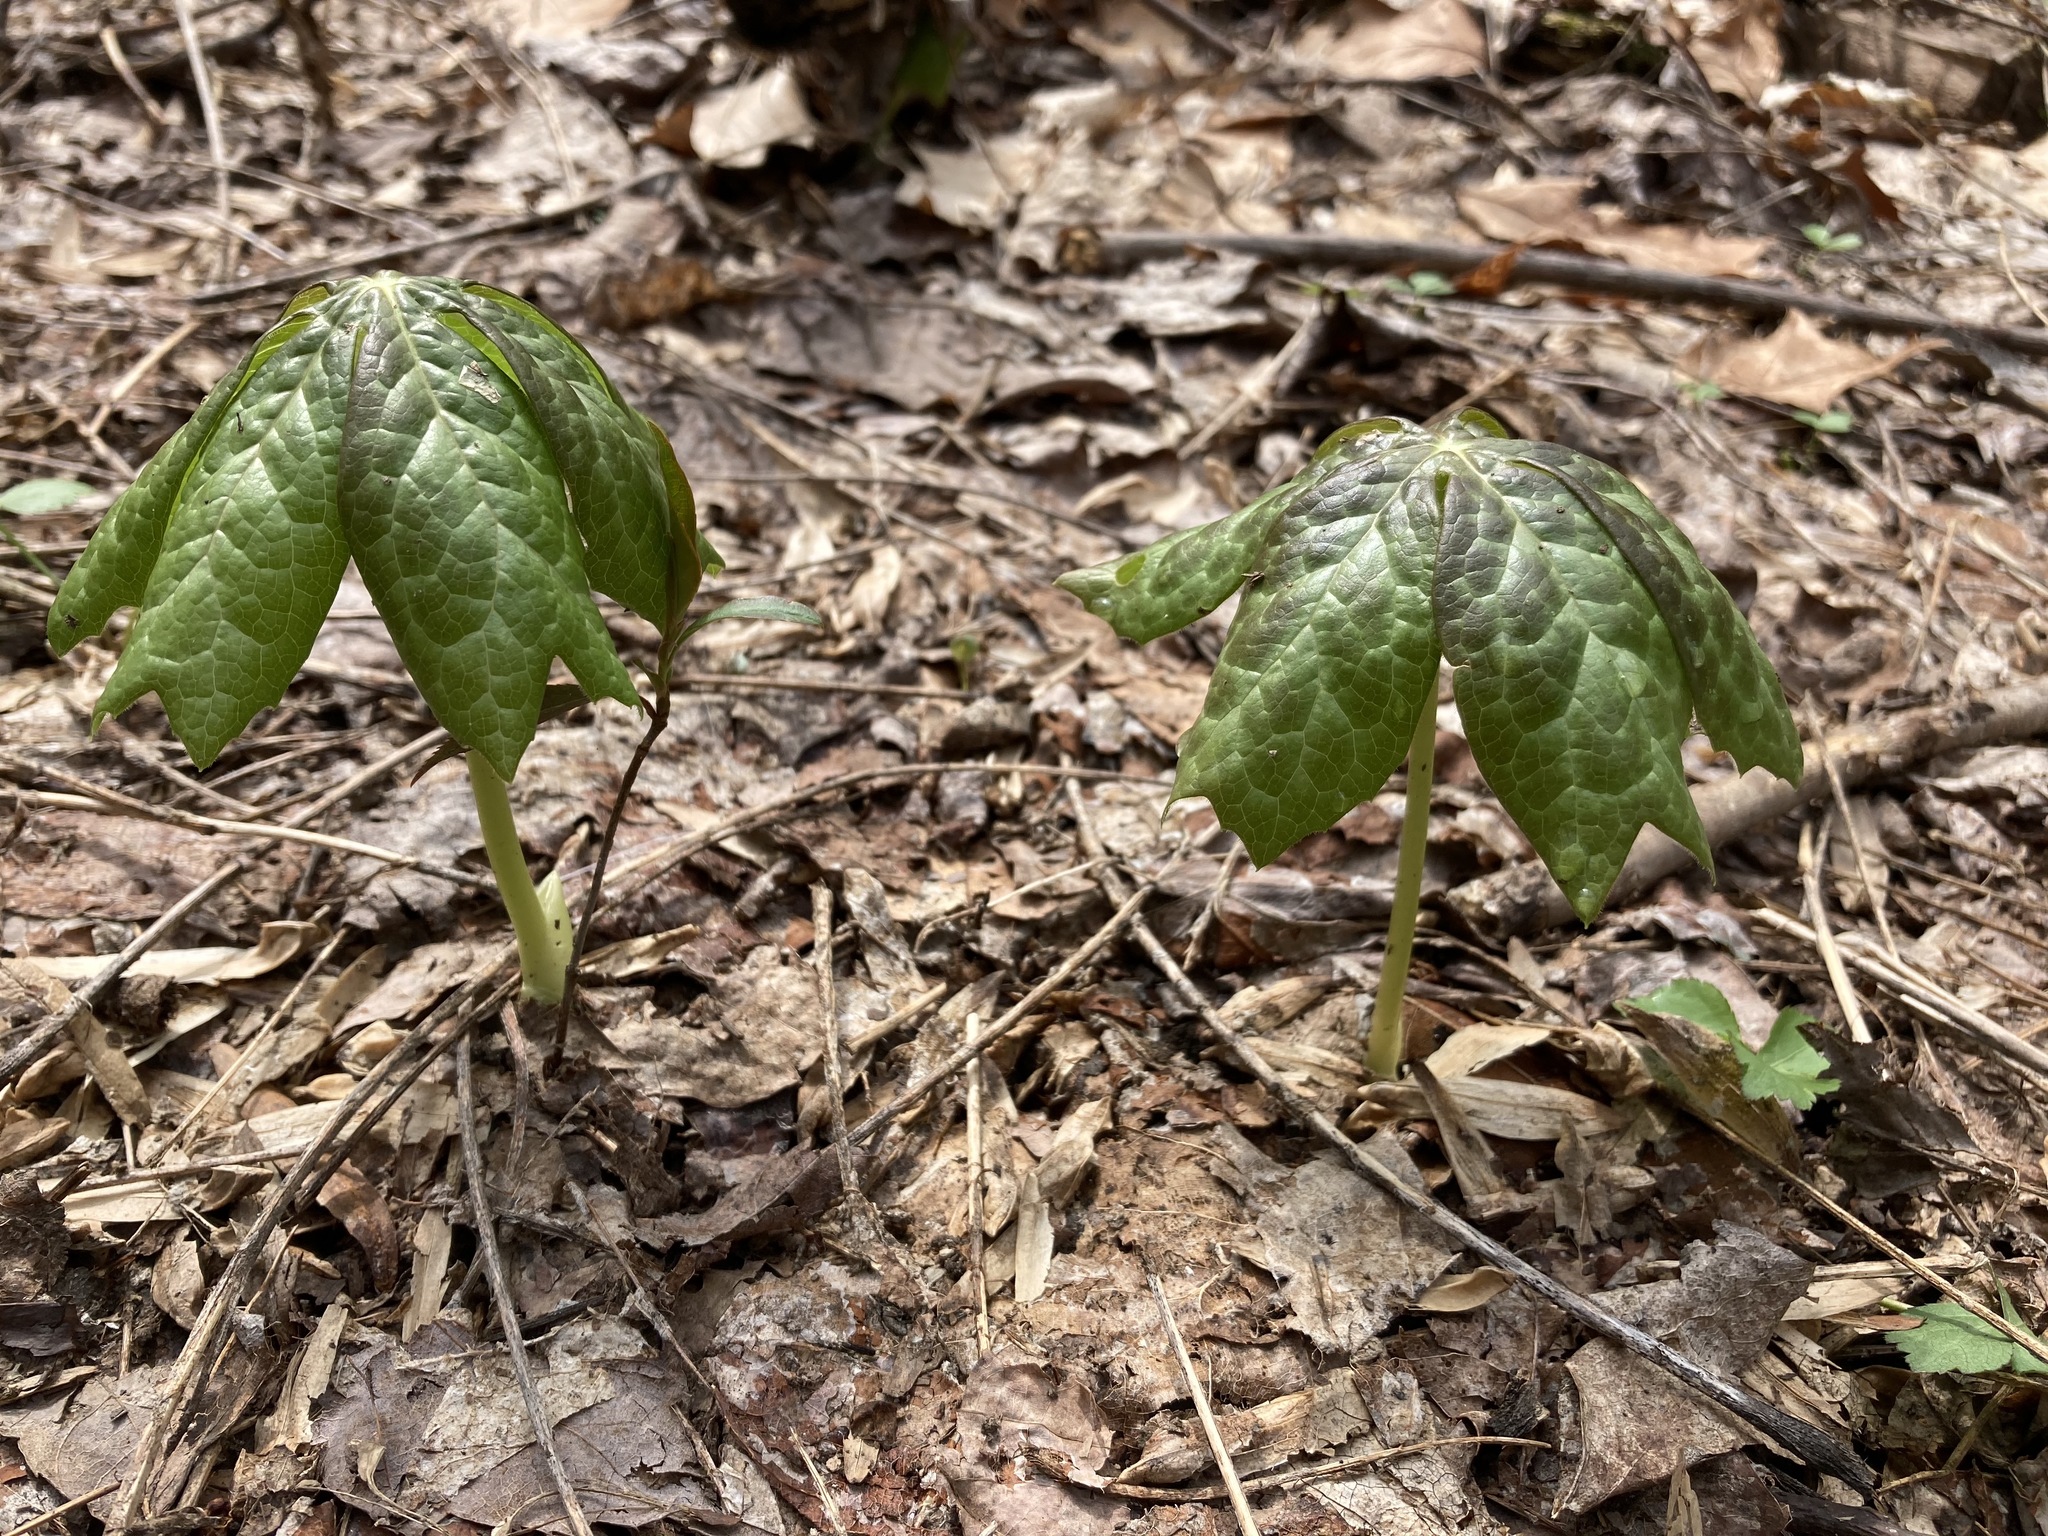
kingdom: Plantae
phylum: Tracheophyta
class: Magnoliopsida
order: Ranunculales
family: Berberidaceae
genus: Podophyllum
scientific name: Podophyllum peltatum
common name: Wild mandrake
